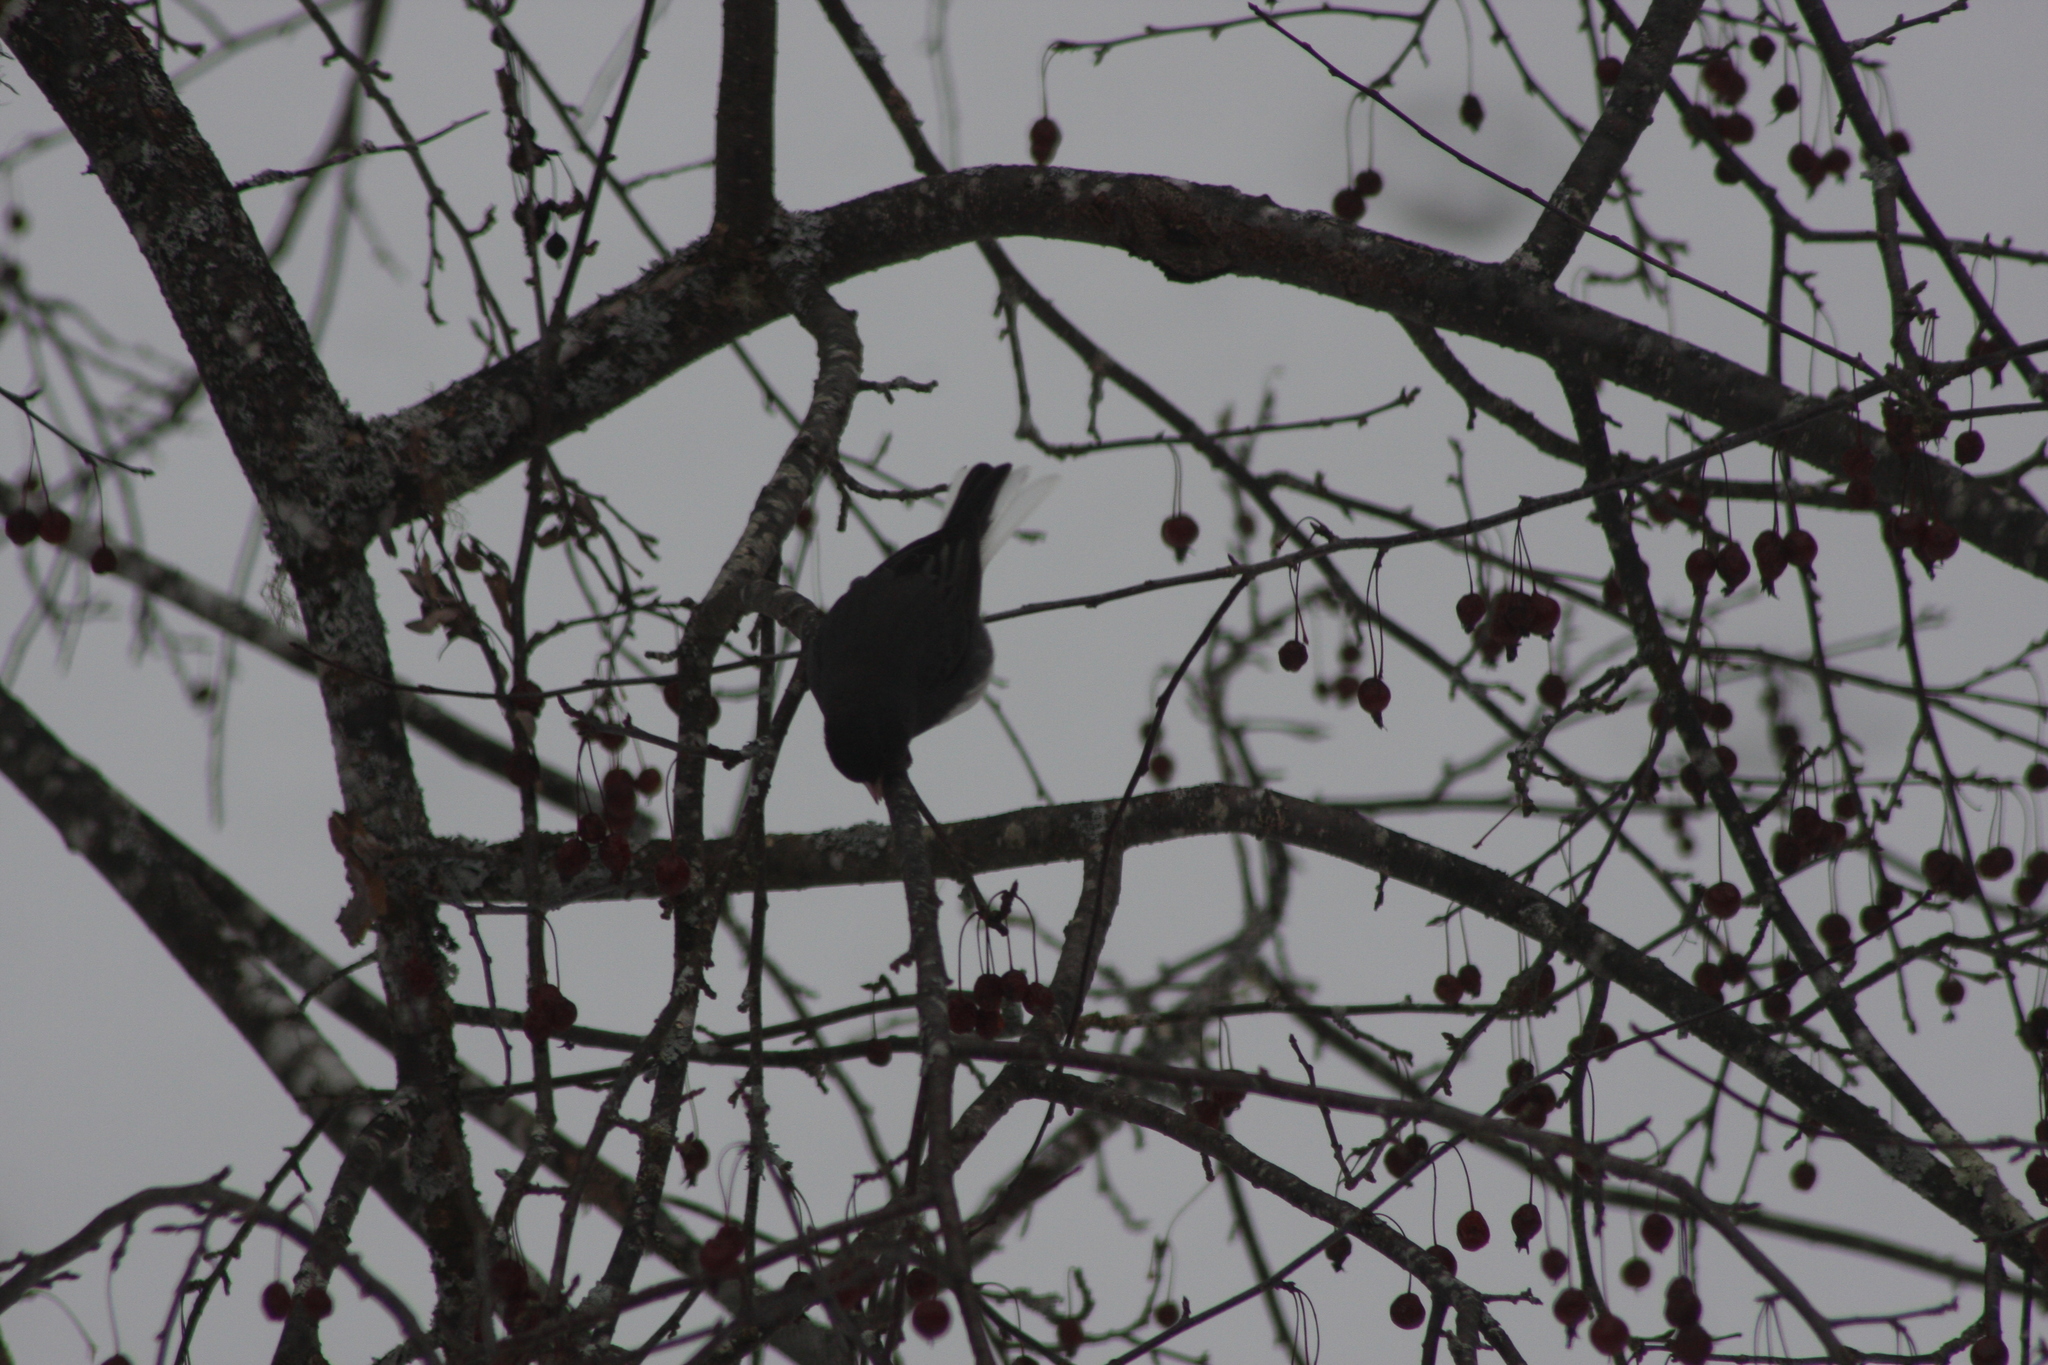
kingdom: Animalia
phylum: Chordata
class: Aves
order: Passeriformes
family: Passerellidae
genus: Junco
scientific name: Junco hyemalis
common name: Dark-eyed junco
